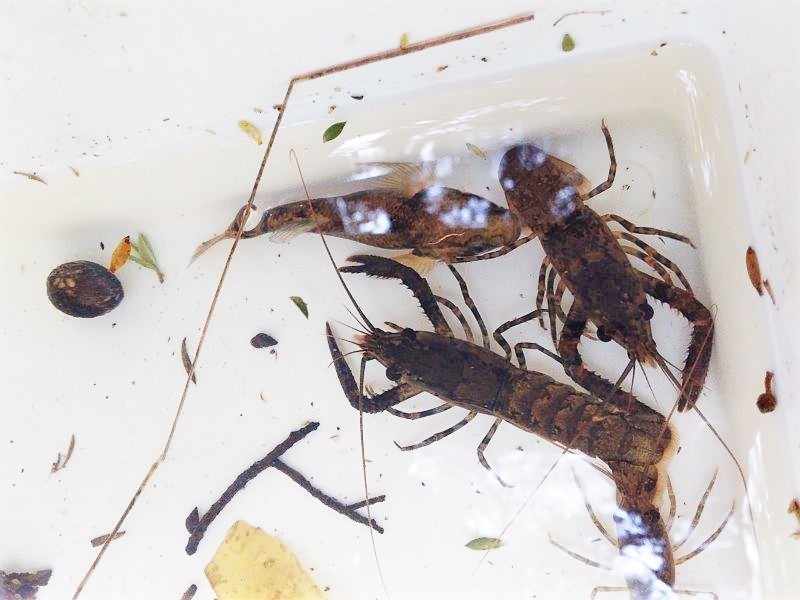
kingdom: Animalia
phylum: Arthropoda
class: Malacostraca
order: Decapoda
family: Parastacidae
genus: Paranephrops
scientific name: Paranephrops planifrons
